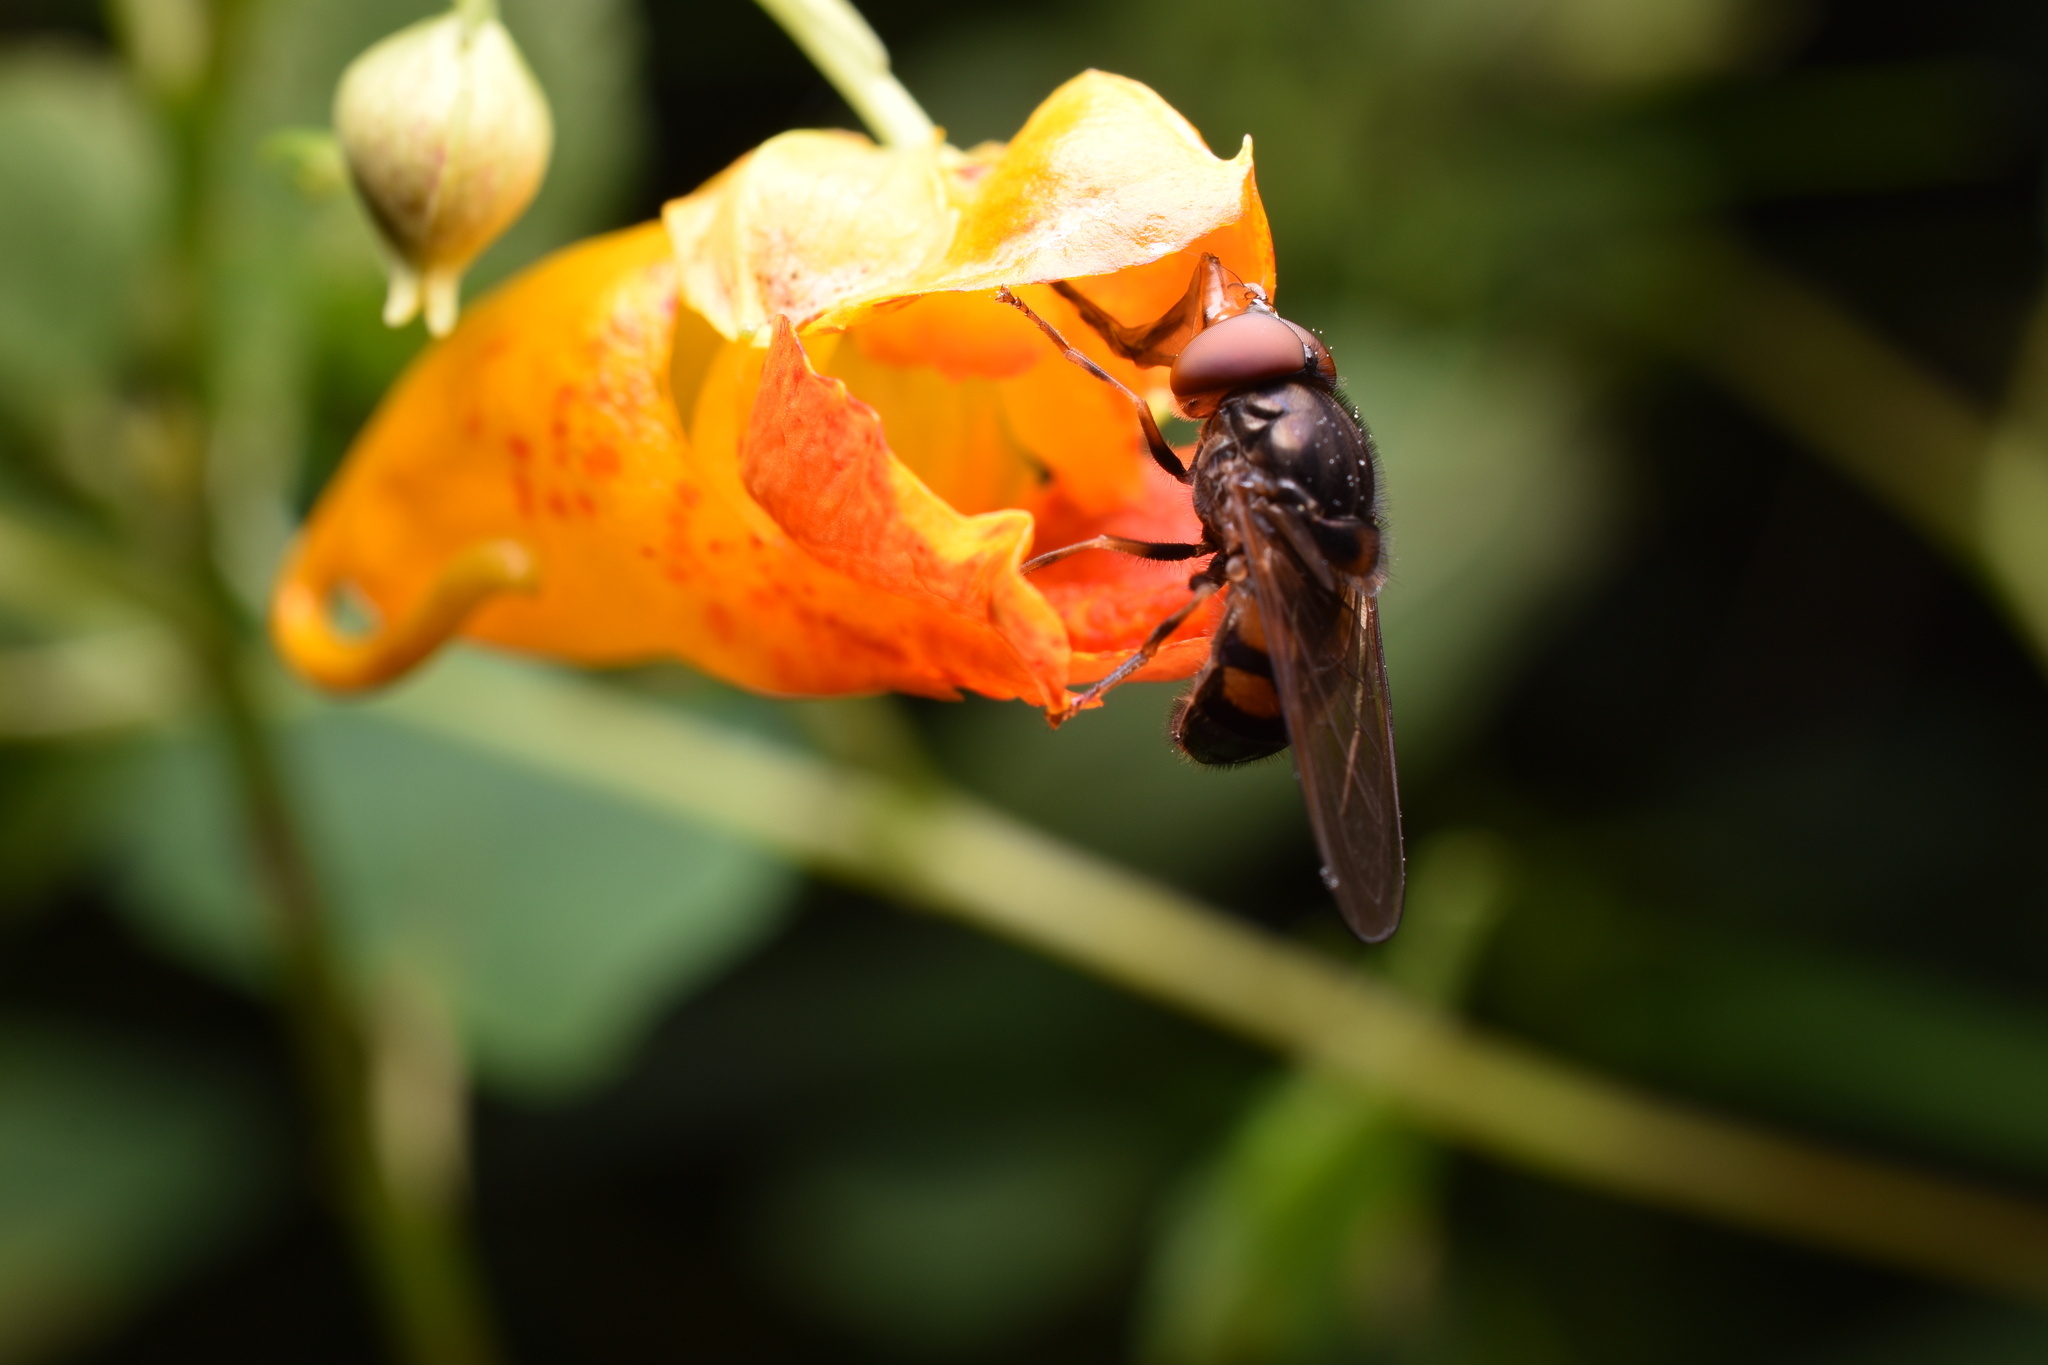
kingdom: Animalia
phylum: Arthropoda
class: Insecta
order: Diptera
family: Syrphidae
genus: Rhingia
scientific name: Rhingia nasica
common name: American snout fly
